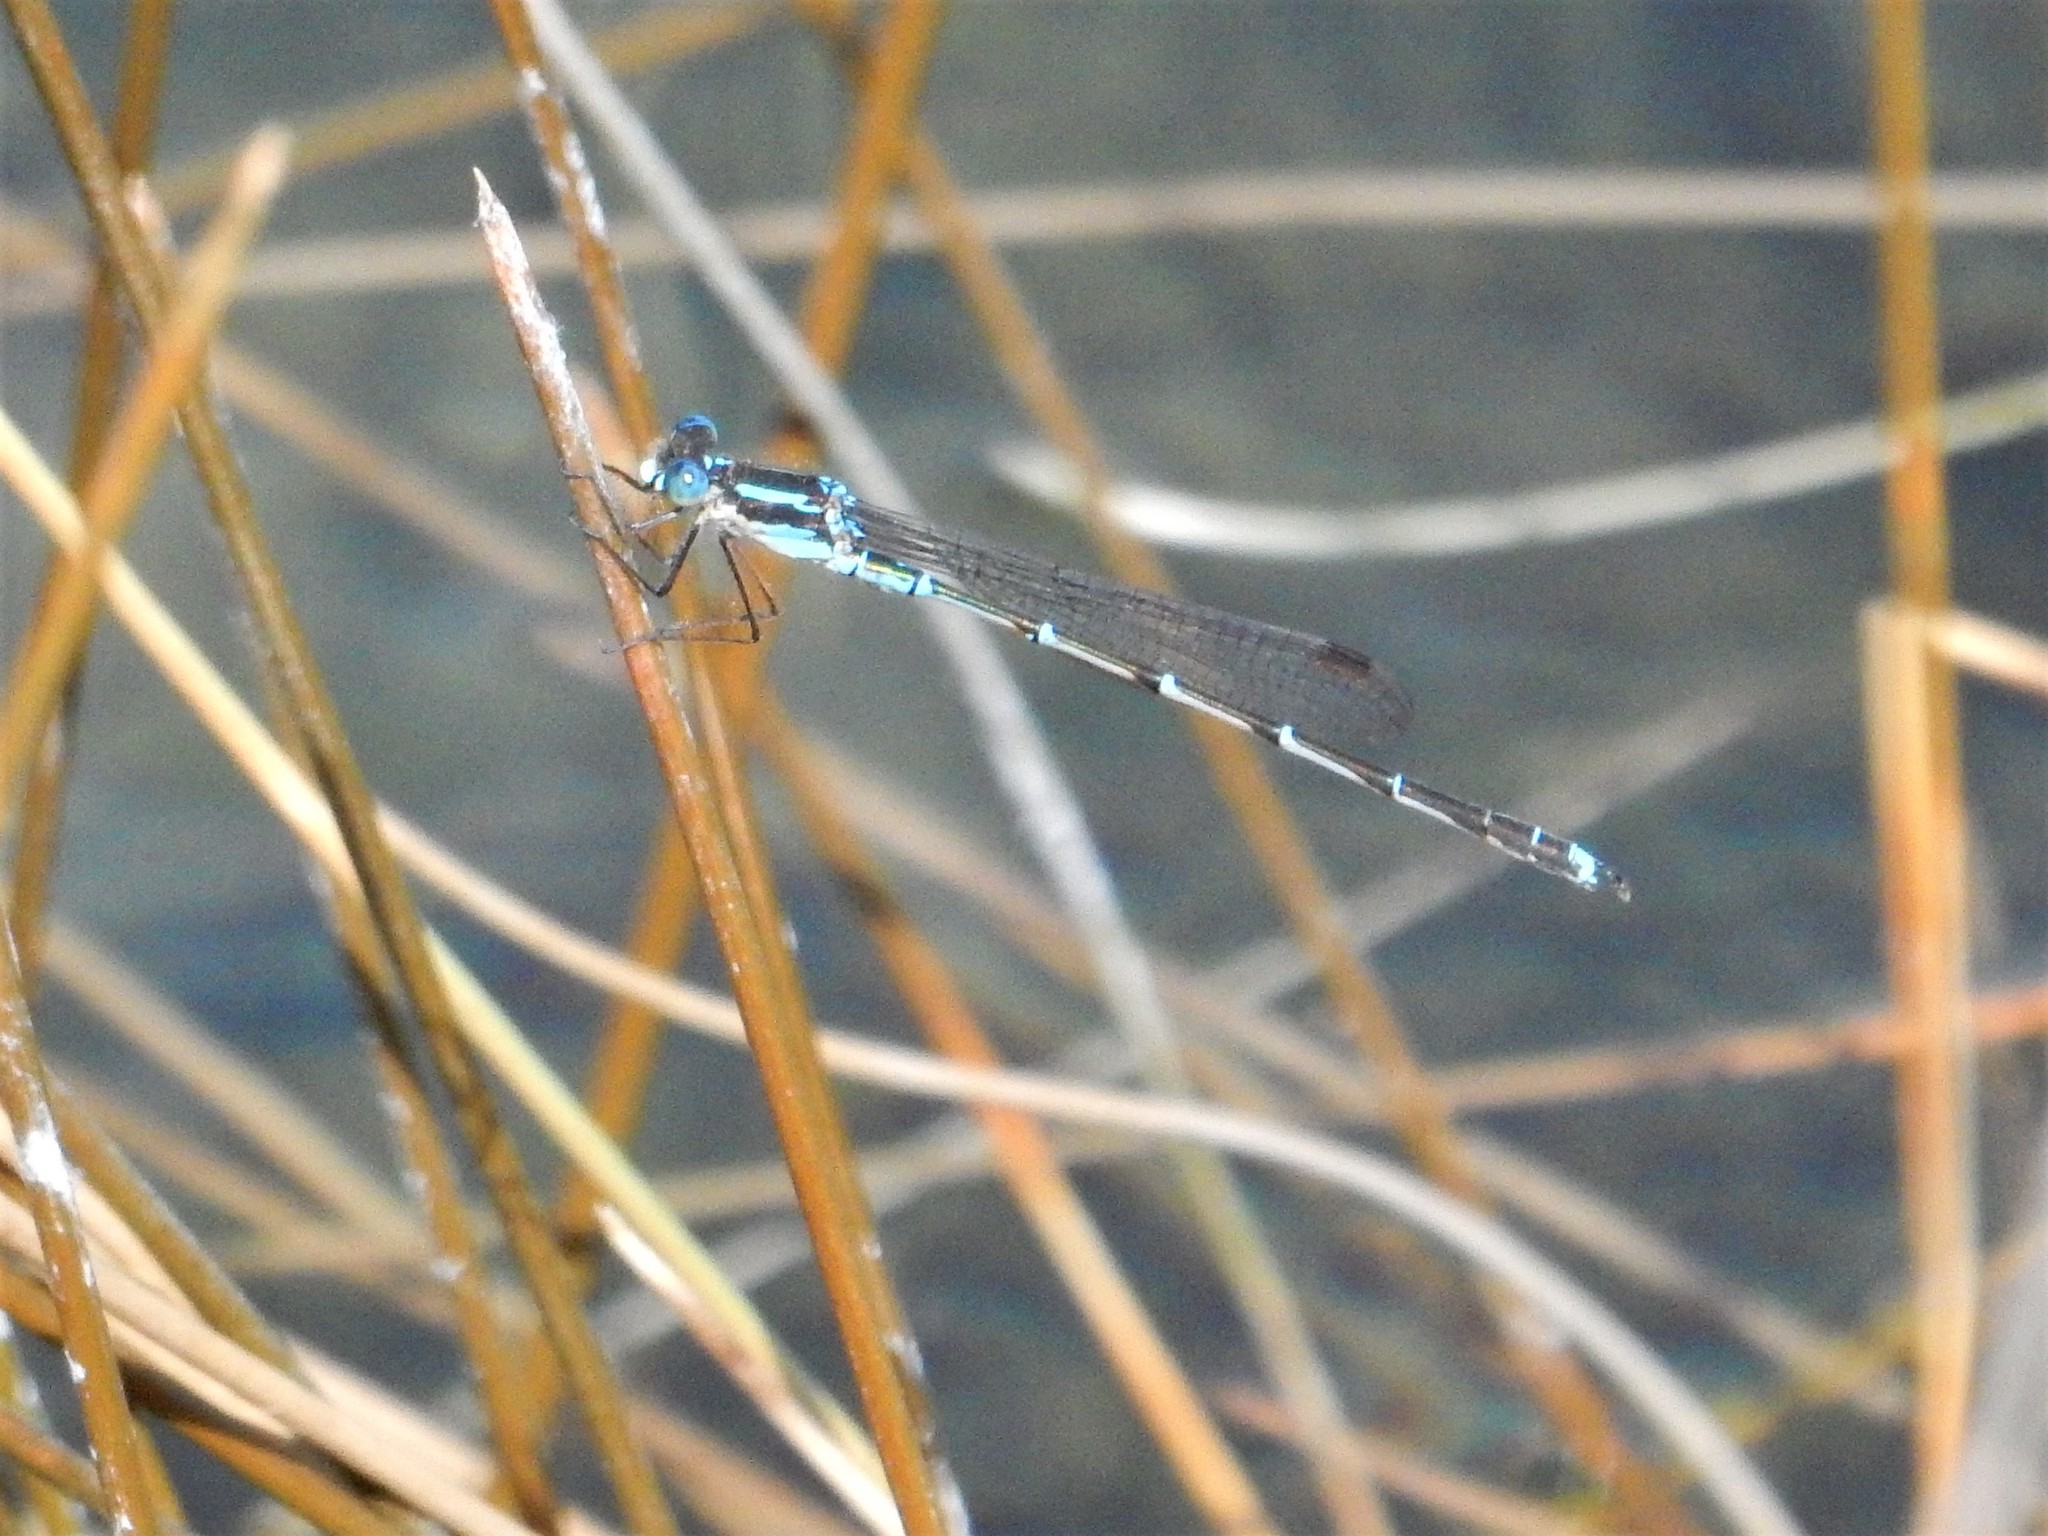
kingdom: Animalia
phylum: Arthropoda
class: Insecta
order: Odonata
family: Lestidae
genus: Austrolestes
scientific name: Austrolestes colensonis
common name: Blue damselfly
